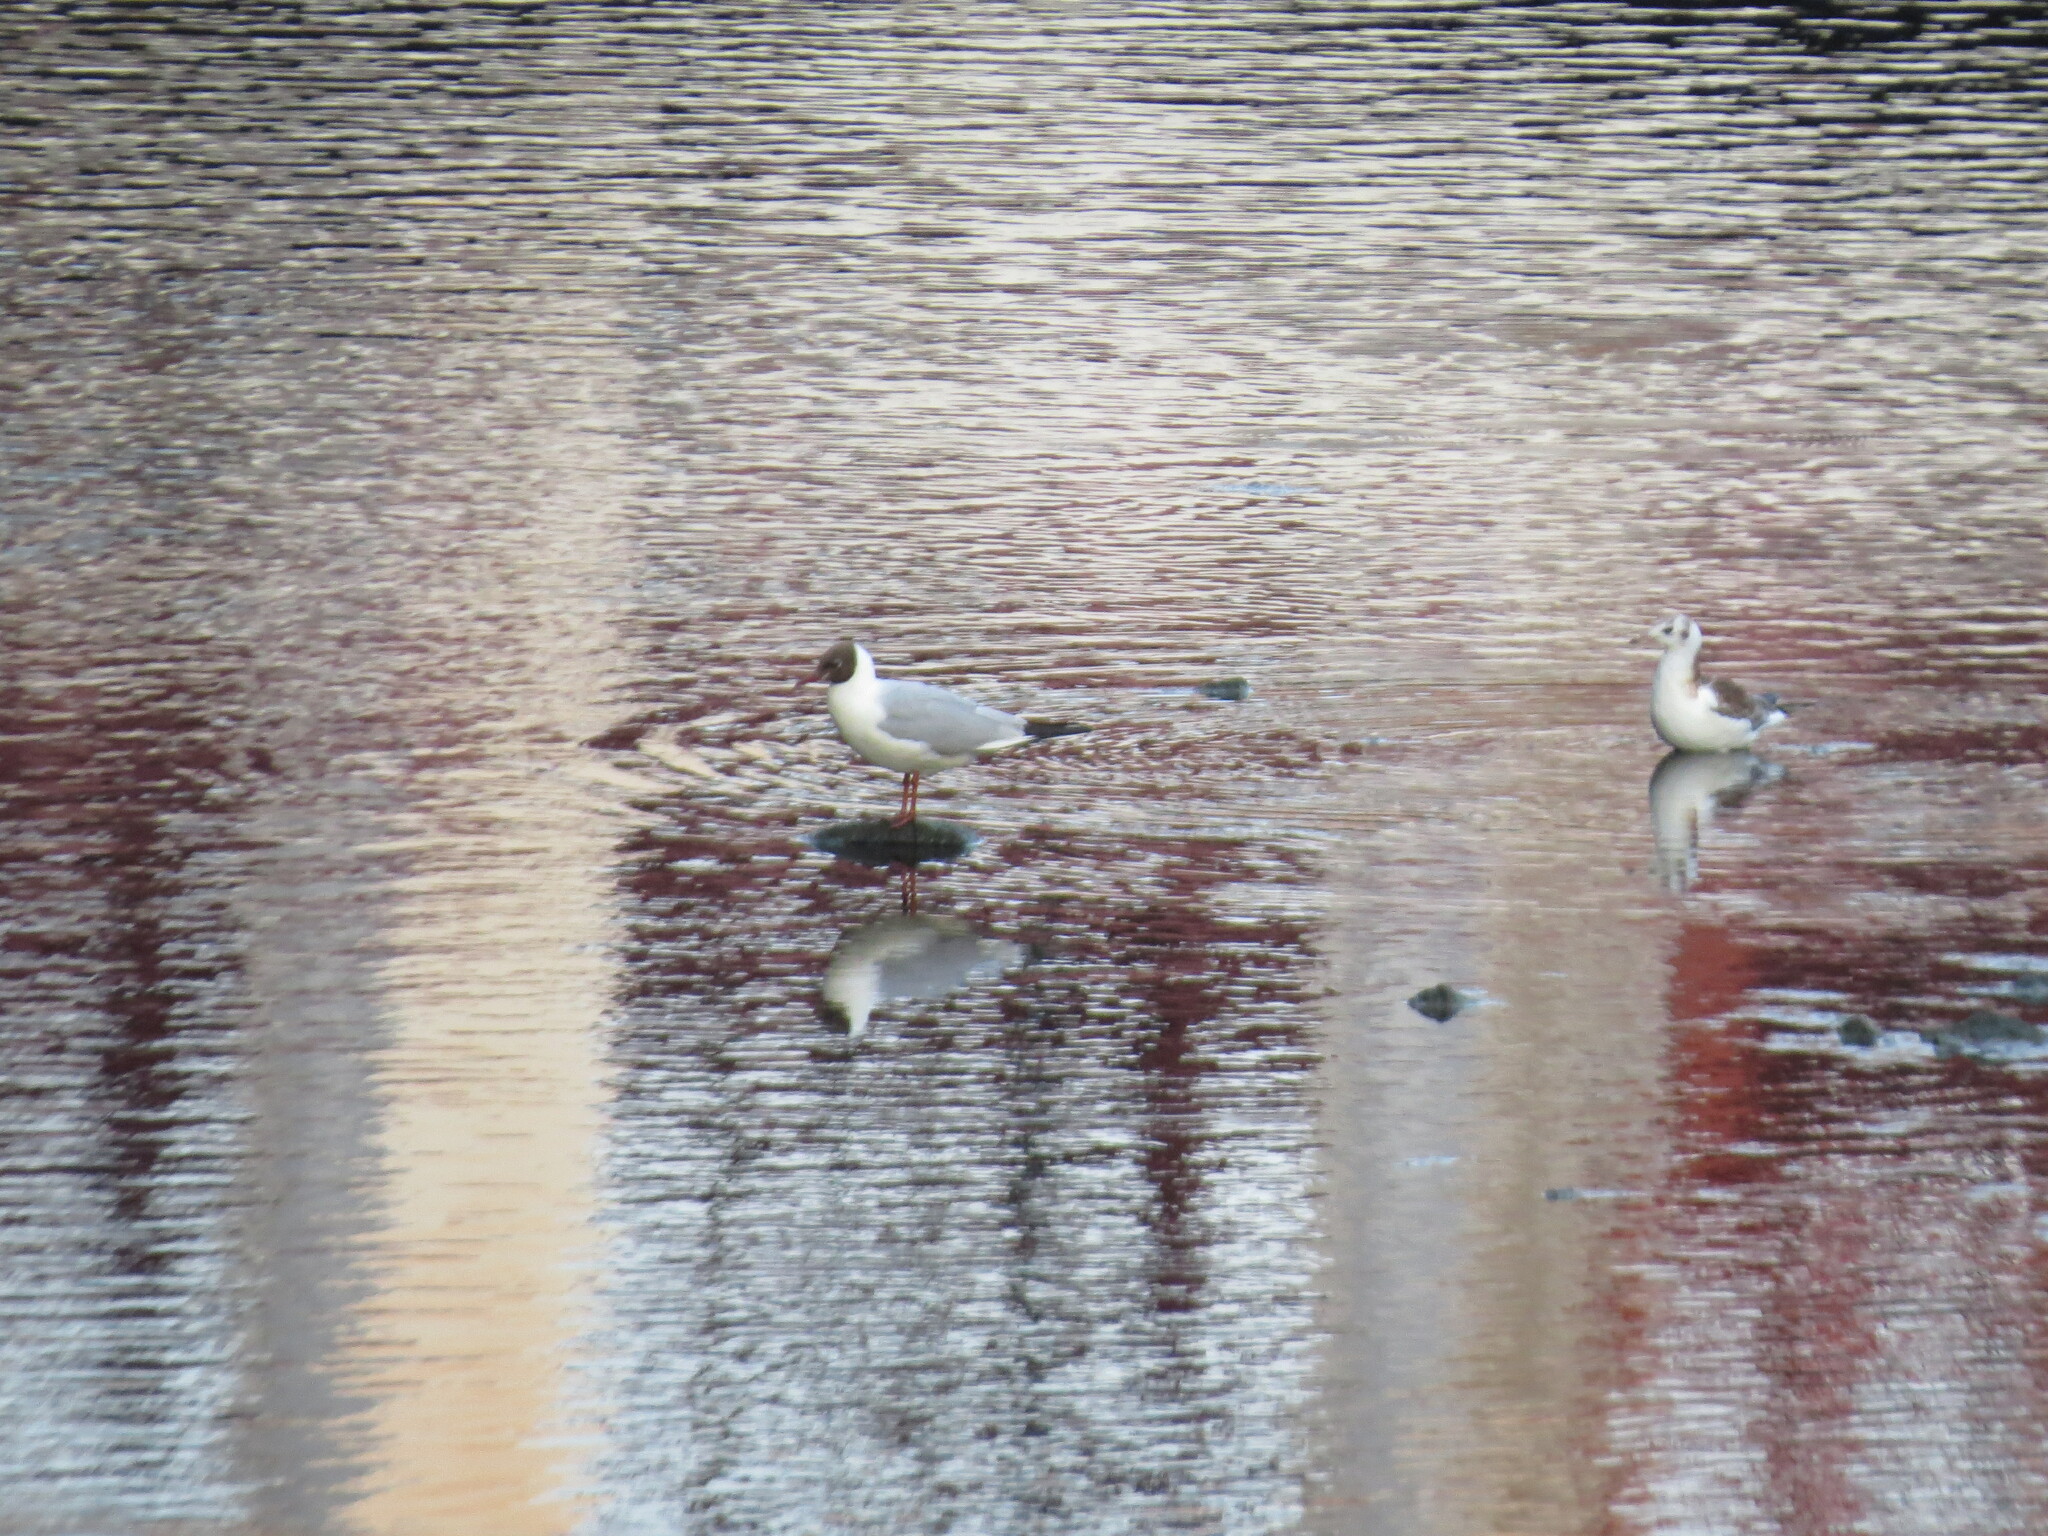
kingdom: Animalia
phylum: Chordata
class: Aves
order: Charadriiformes
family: Laridae
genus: Chroicocephalus
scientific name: Chroicocephalus ridibundus
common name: Black-headed gull
